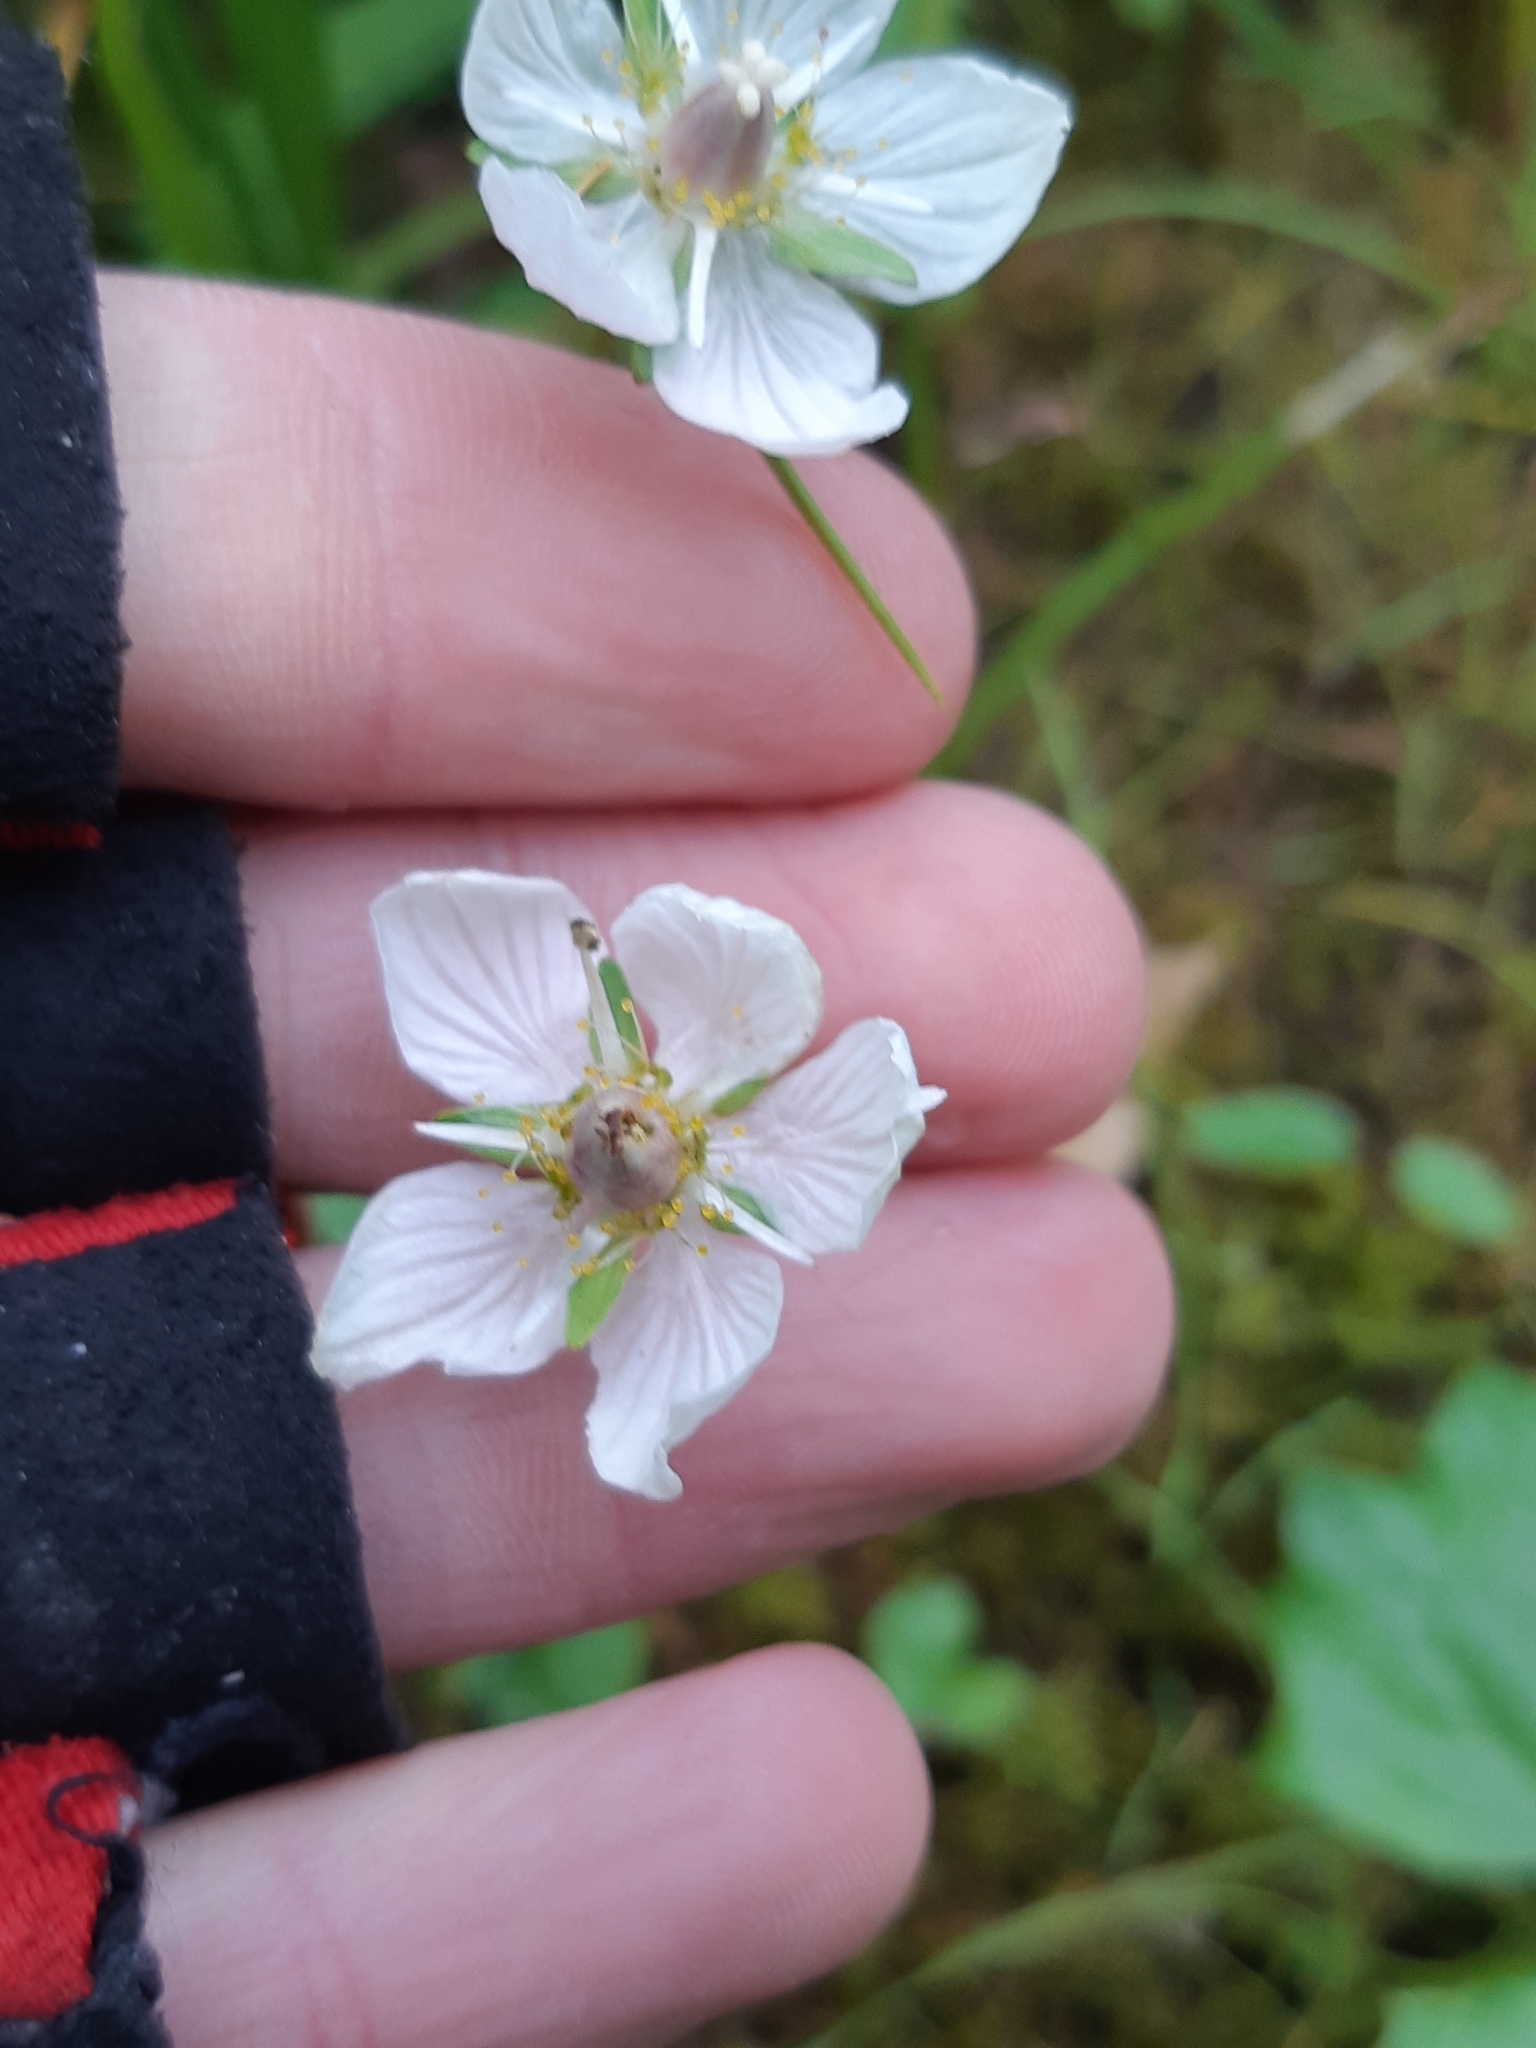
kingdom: Plantae
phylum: Tracheophyta
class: Magnoliopsida
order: Celastrales
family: Parnassiaceae
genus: Parnassia
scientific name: Parnassia palustris
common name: Grass-of-parnassus
